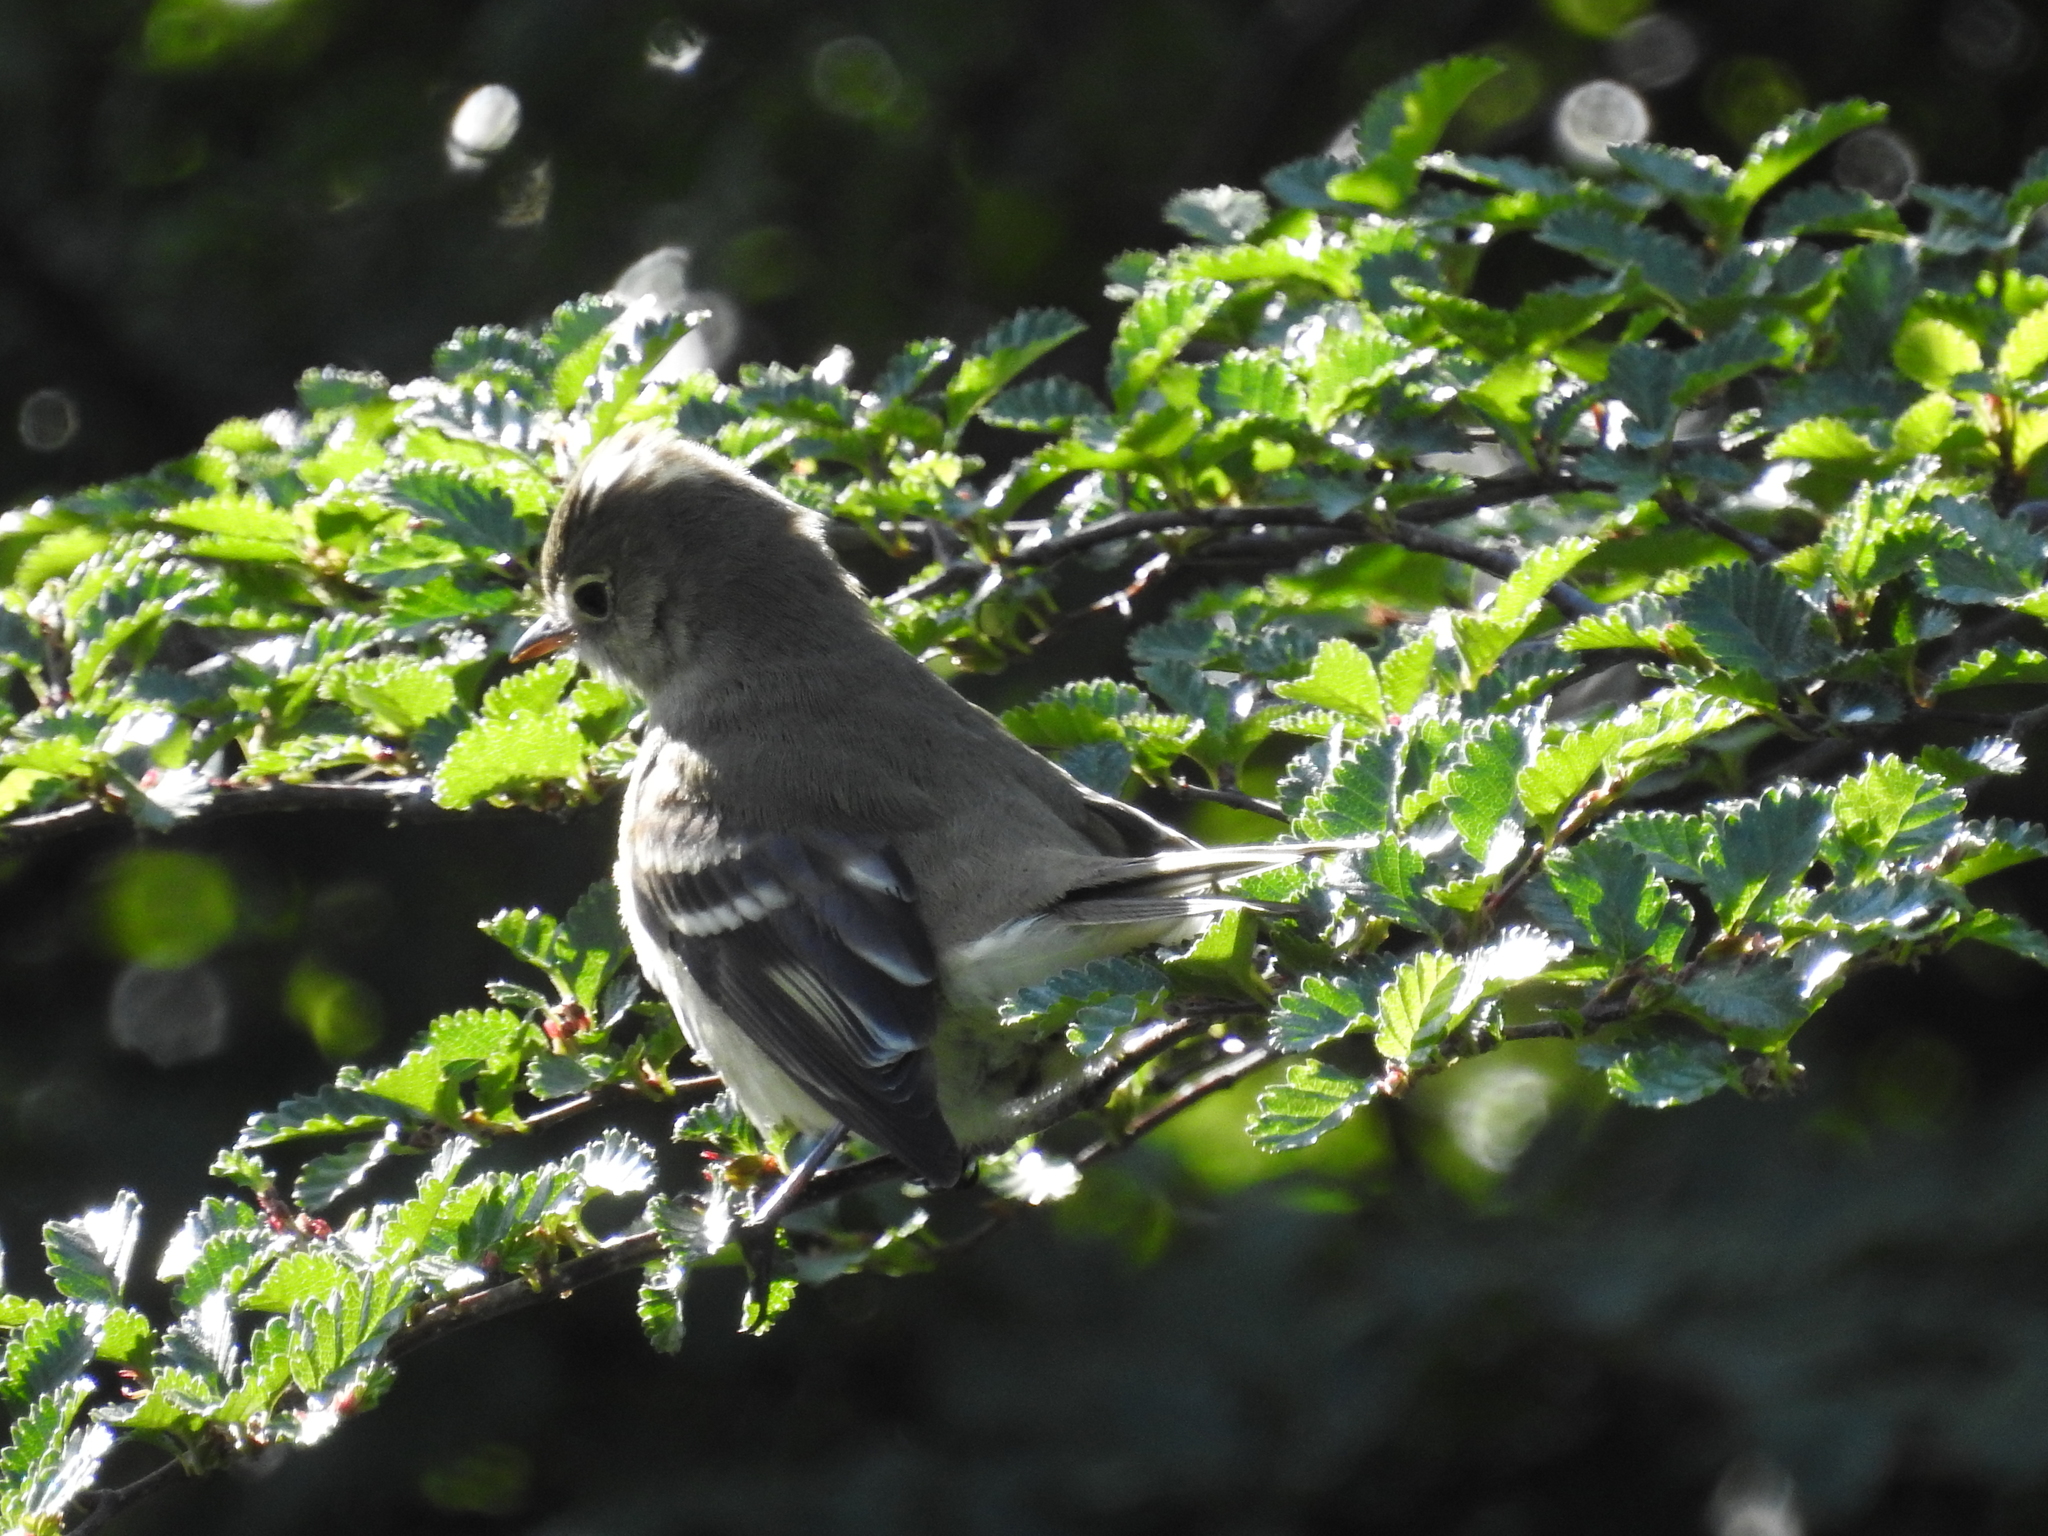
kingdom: Animalia
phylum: Chordata
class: Aves
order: Passeriformes
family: Tyrannidae
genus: Elaenia
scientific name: Elaenia albiceps
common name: White-crested elaenia
